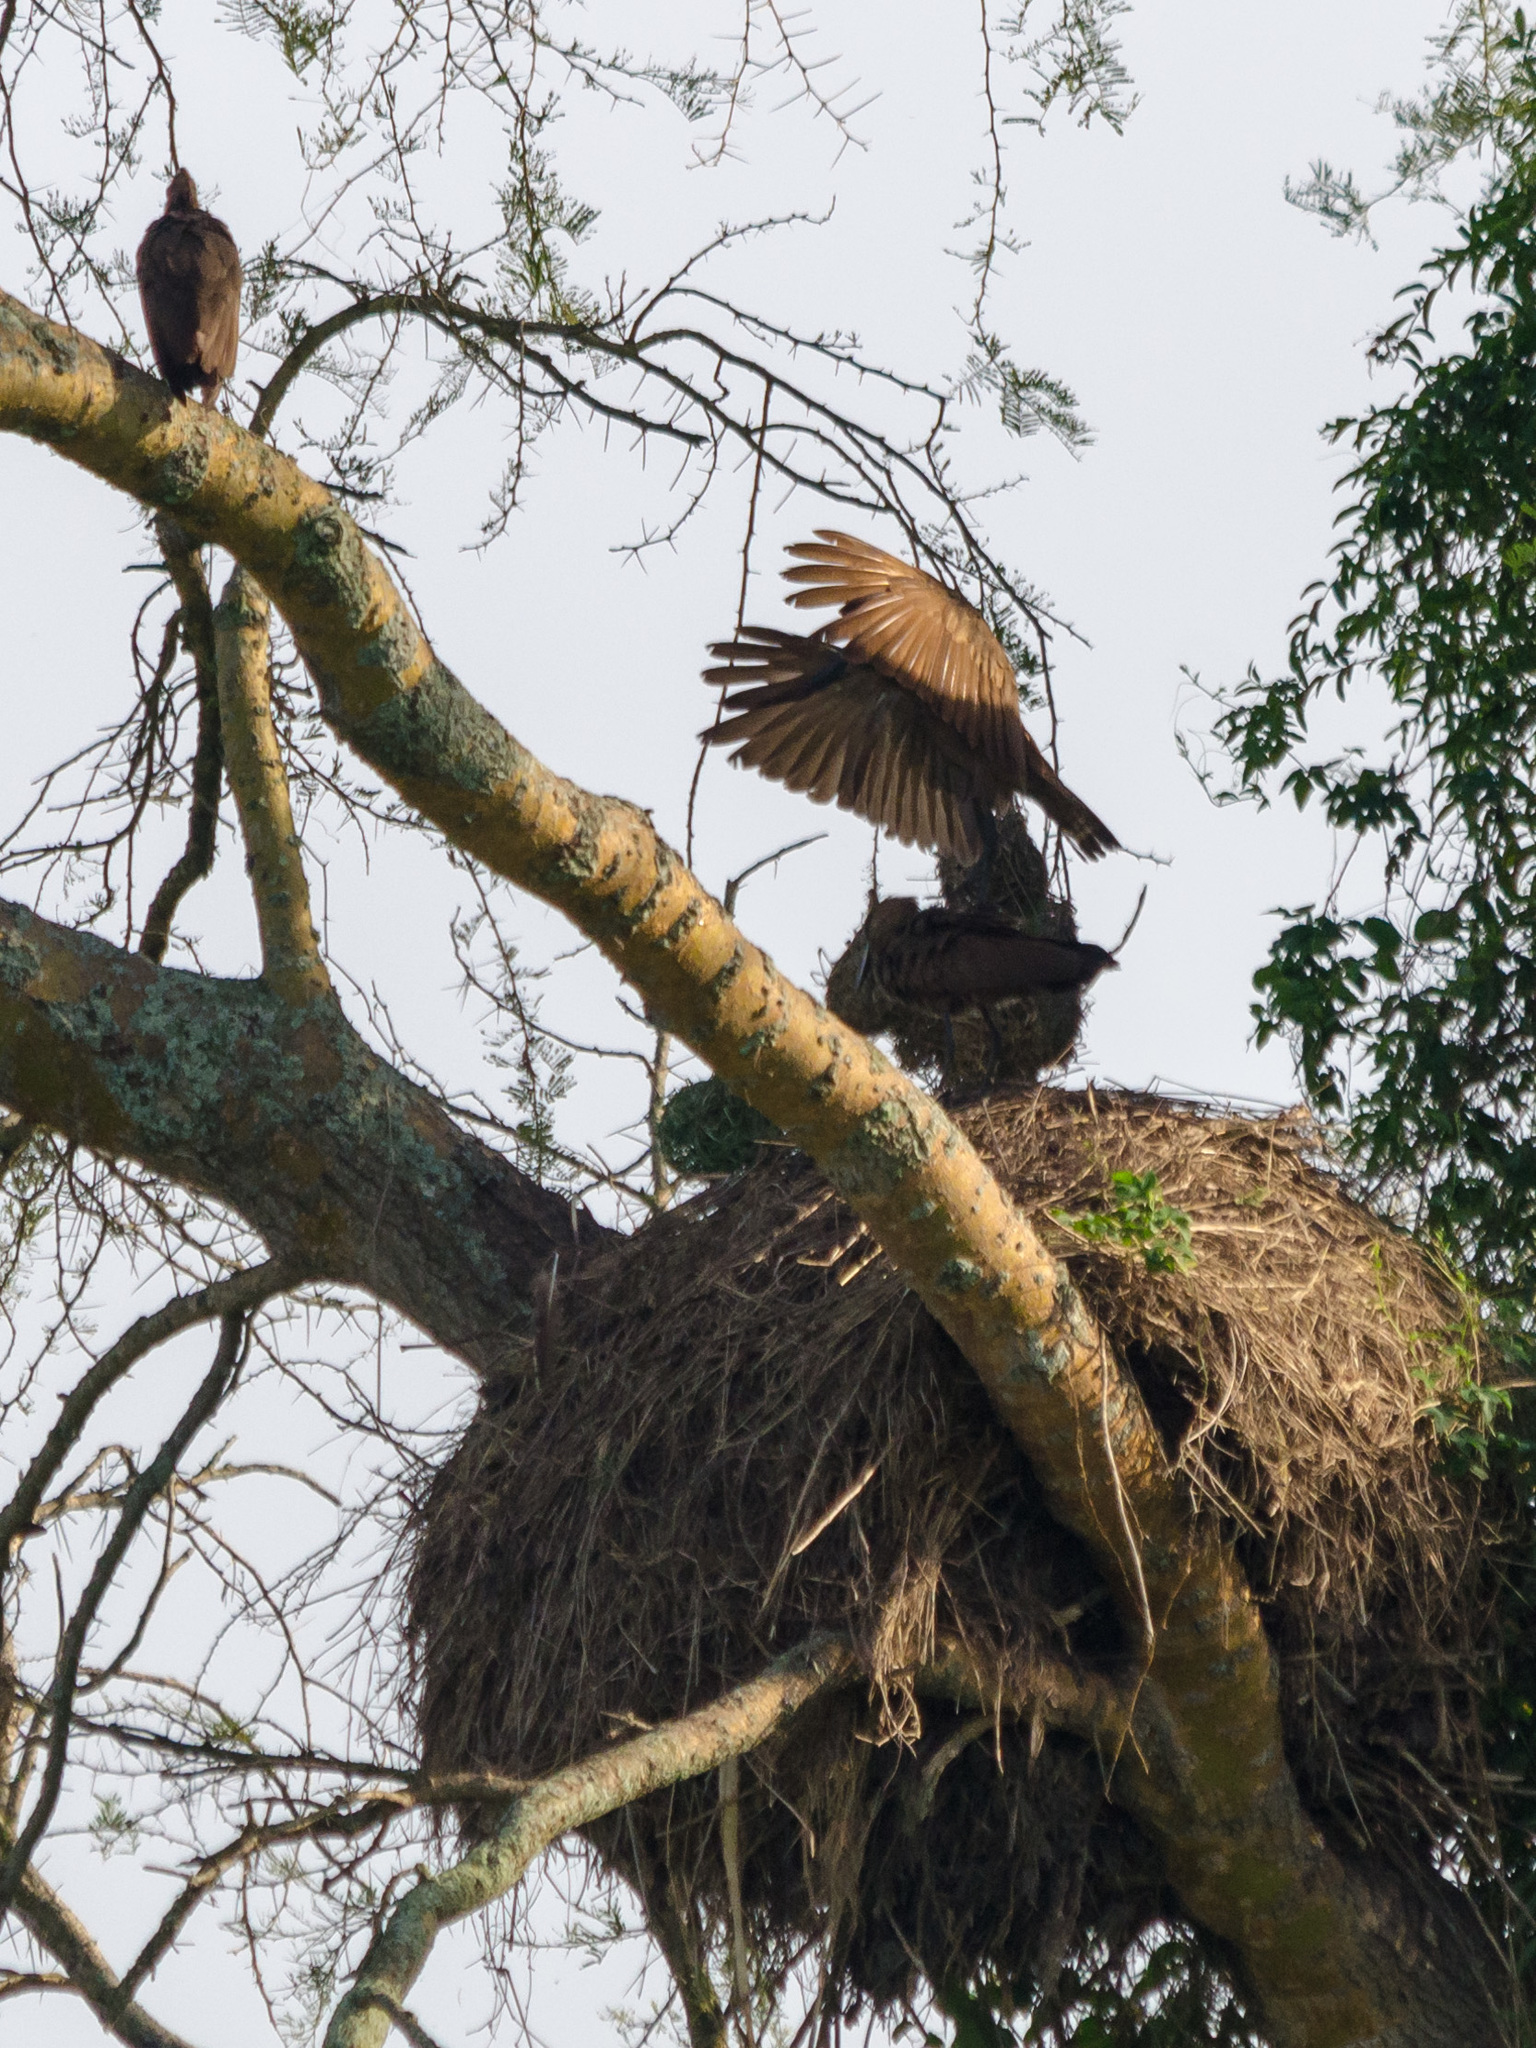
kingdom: Animalia
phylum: Chordata
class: Aves
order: Pelecaniformes
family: Scopidae
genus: Scopus
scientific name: Scopus umbretta
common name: Hamerkop
